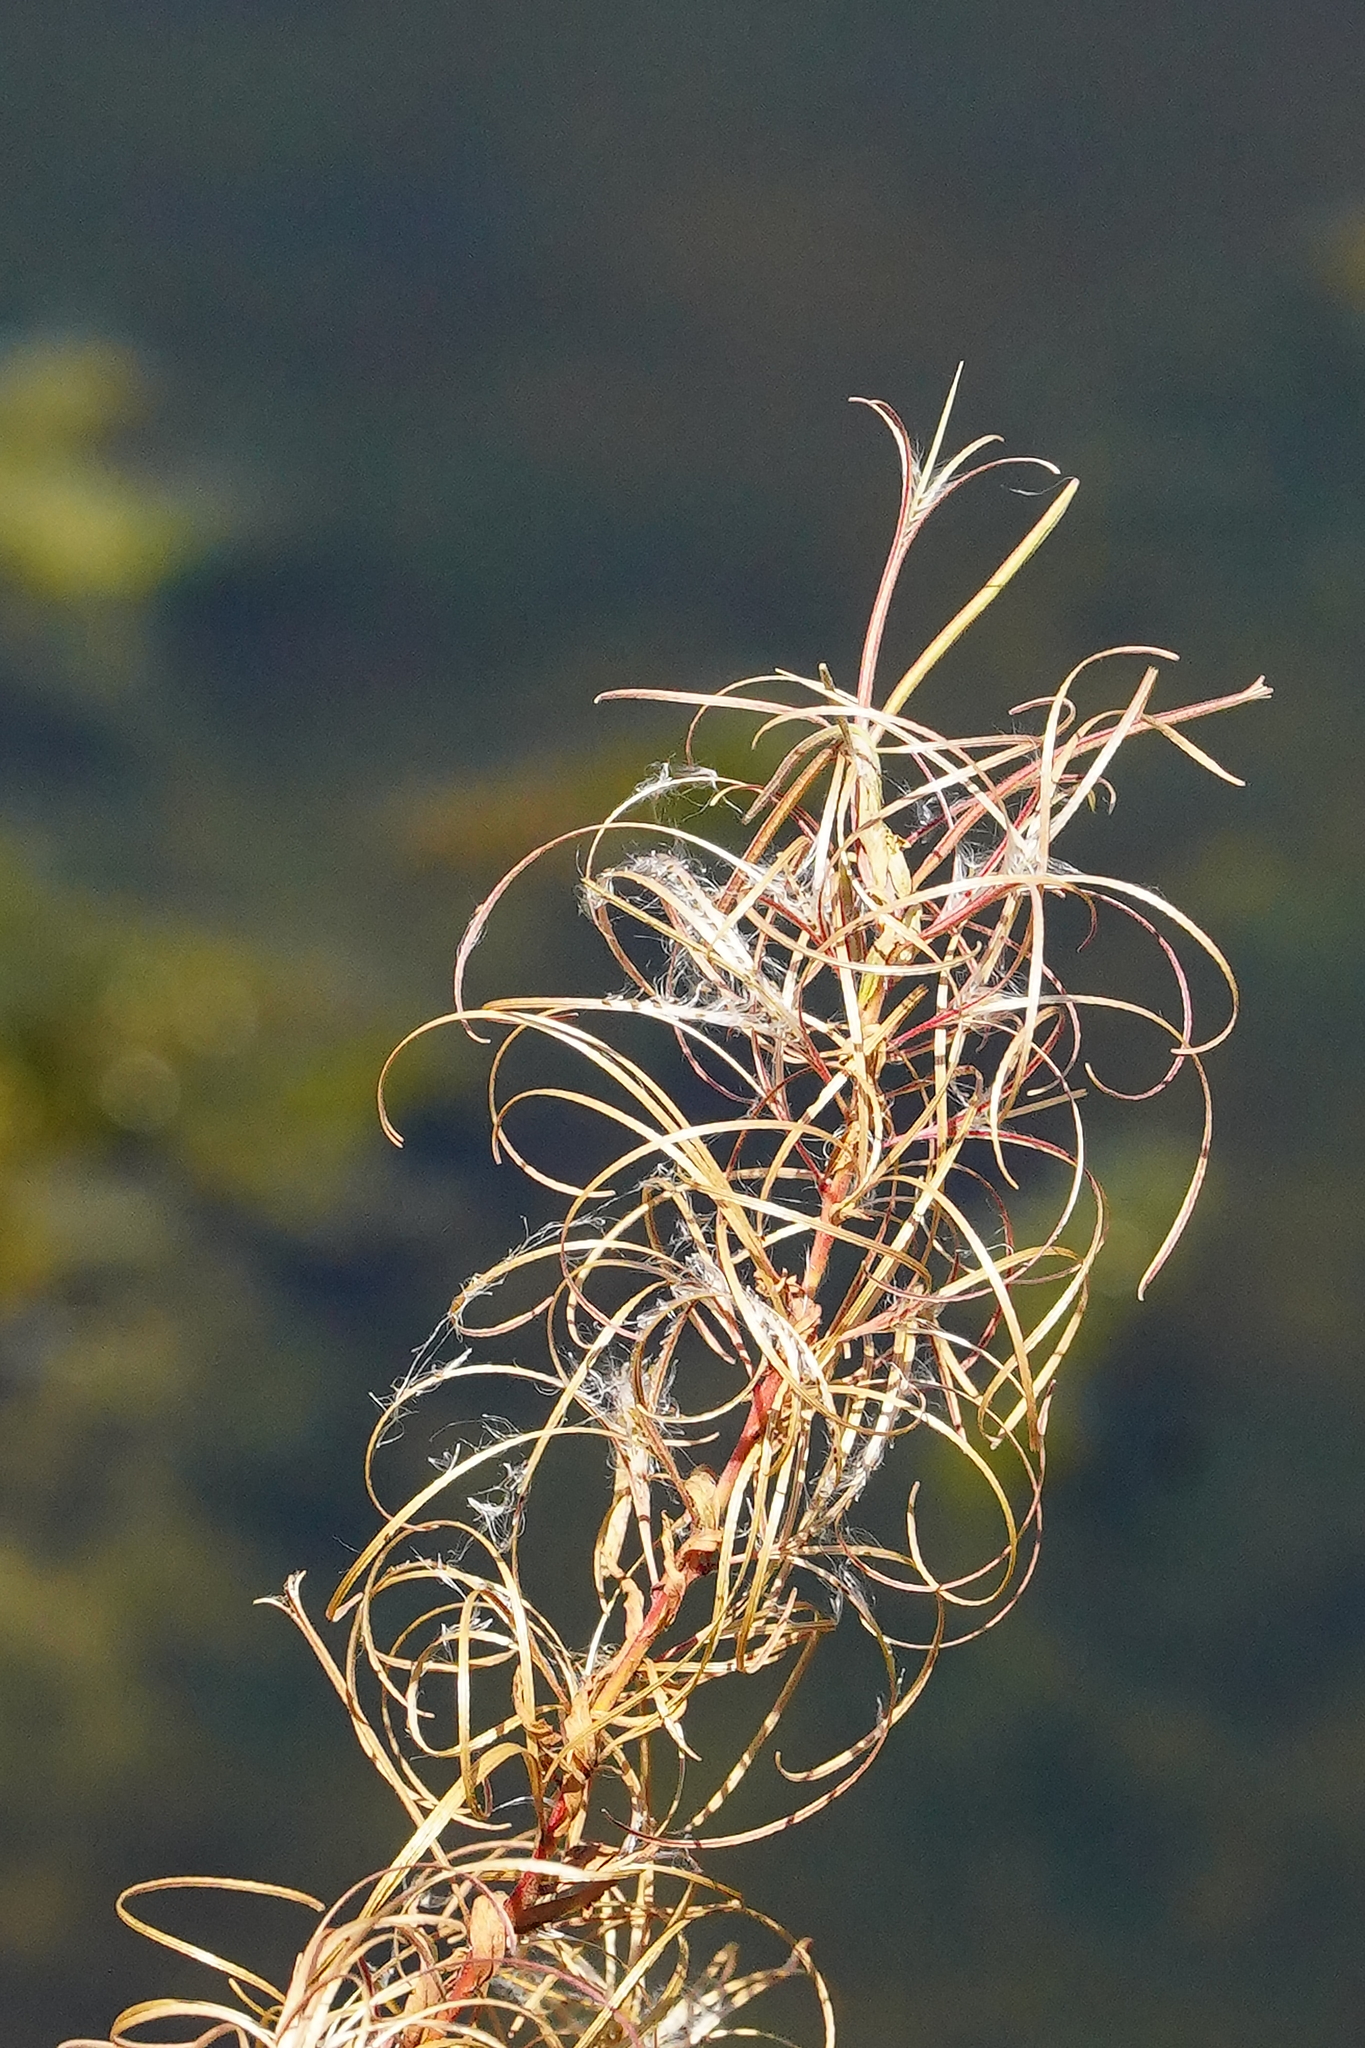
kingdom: Plantae
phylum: Tracheophyta
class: Magnoliopsida
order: Myrtales
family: Onagraceae
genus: Epilobium
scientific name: Epilobium ciliatum
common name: American willowherb
